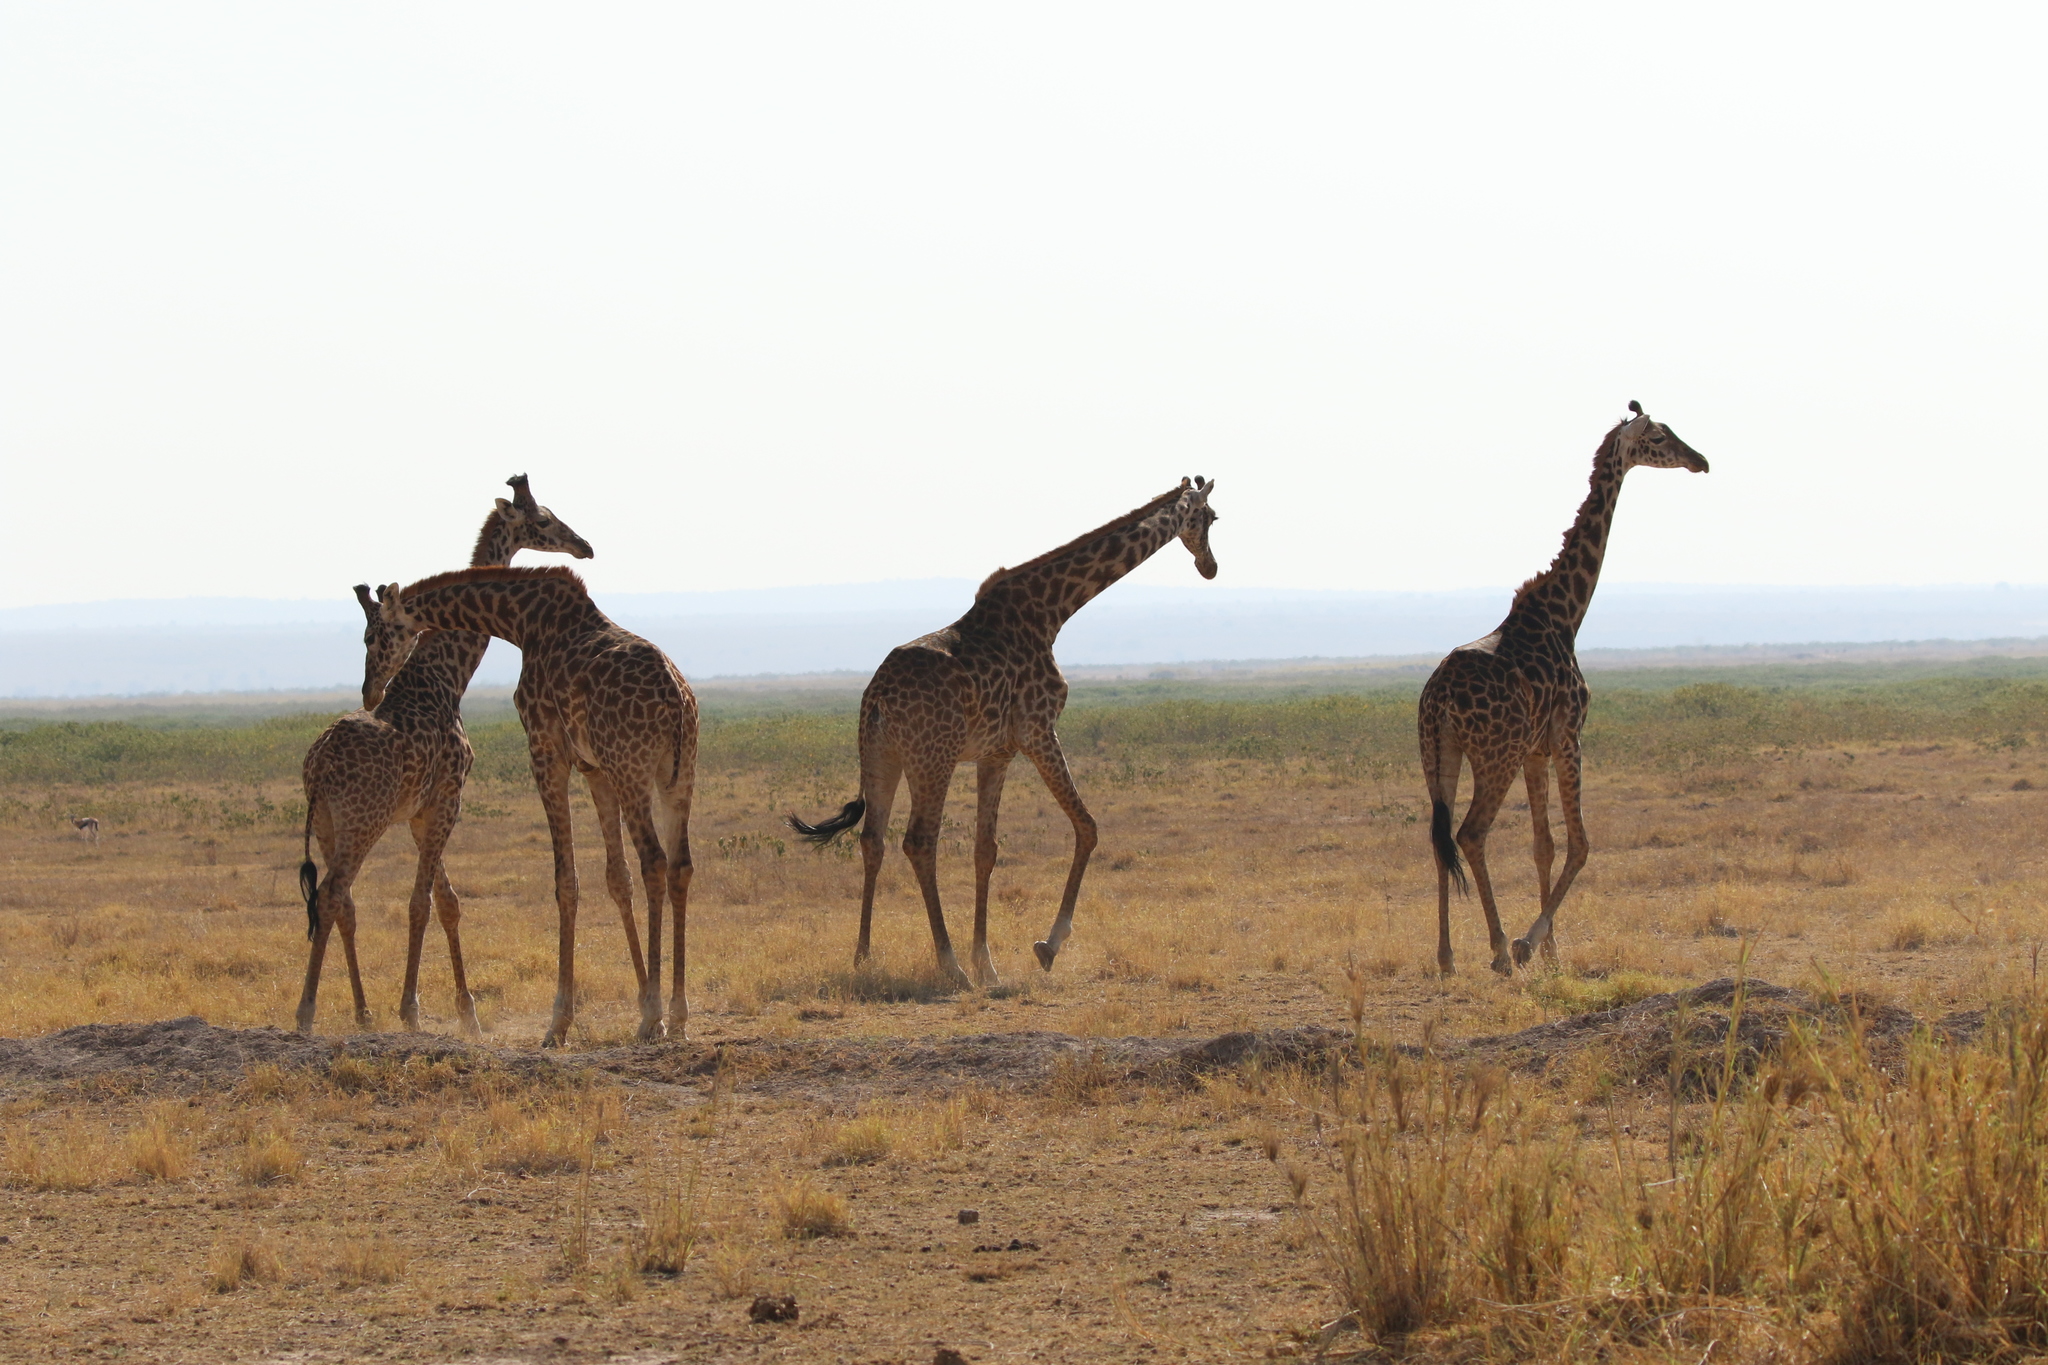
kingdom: Animalia
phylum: Chordata
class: Mammalia
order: Artiodactyla
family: Giraffidae
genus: Giraffa
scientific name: Giraffa tippelskirchi
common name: Masai giraffe
